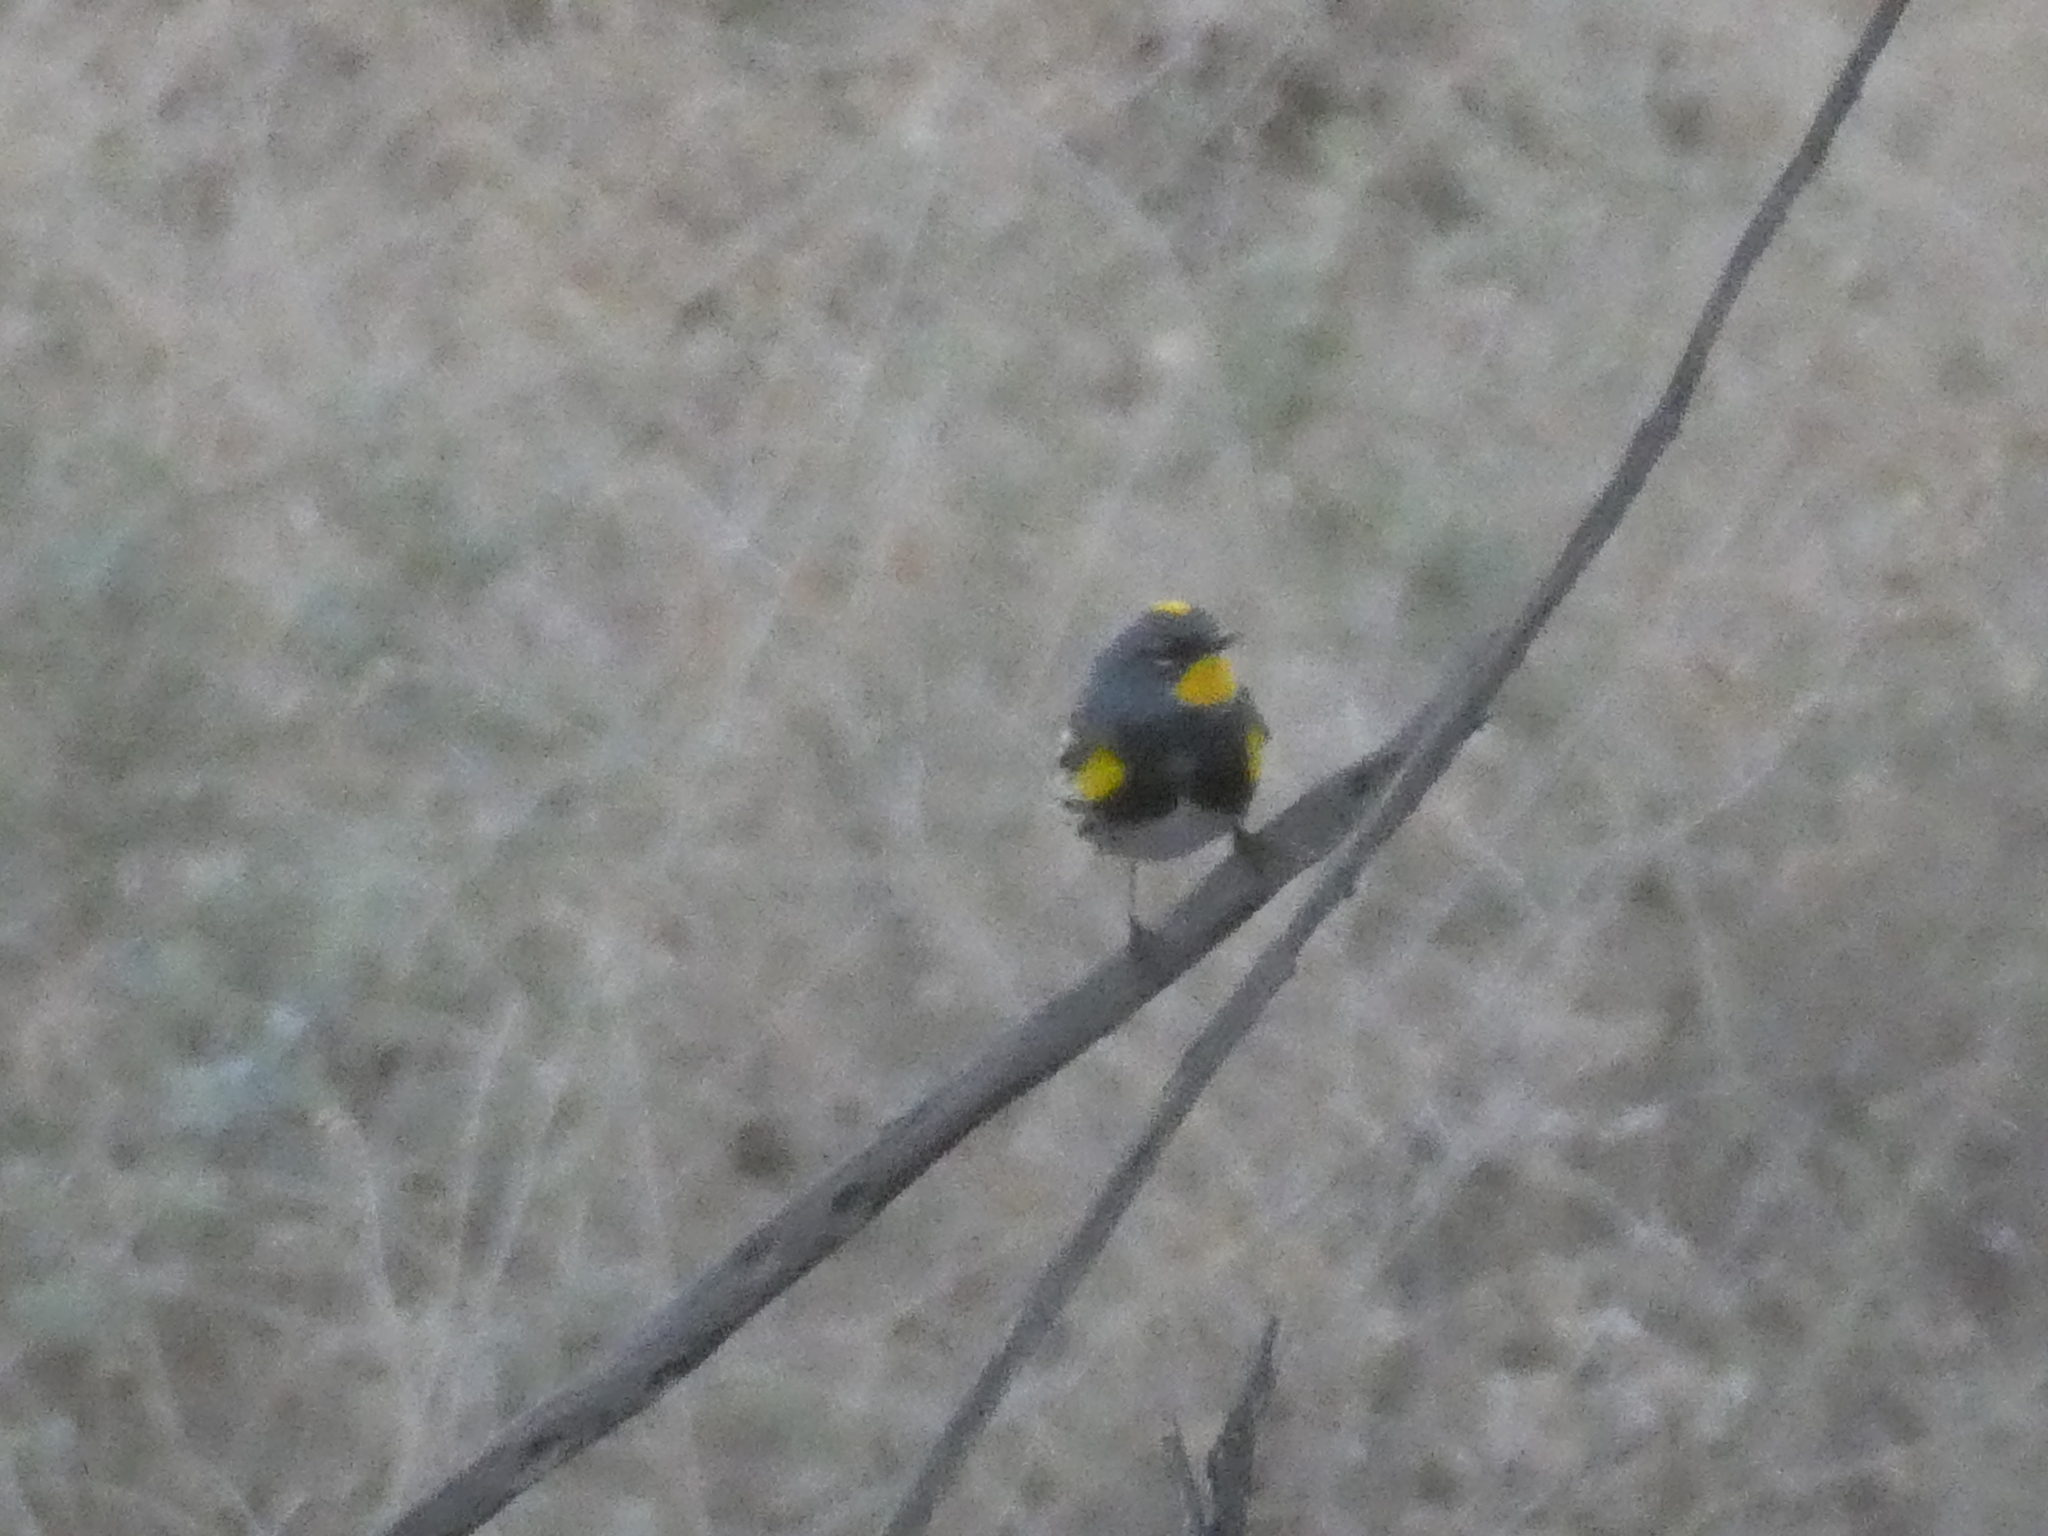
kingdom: Animalia
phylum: Chordata
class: Aves
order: Passeriformes
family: Parulidae
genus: Setophaga
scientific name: Setophaga auduboni
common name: Audubon's warbler
